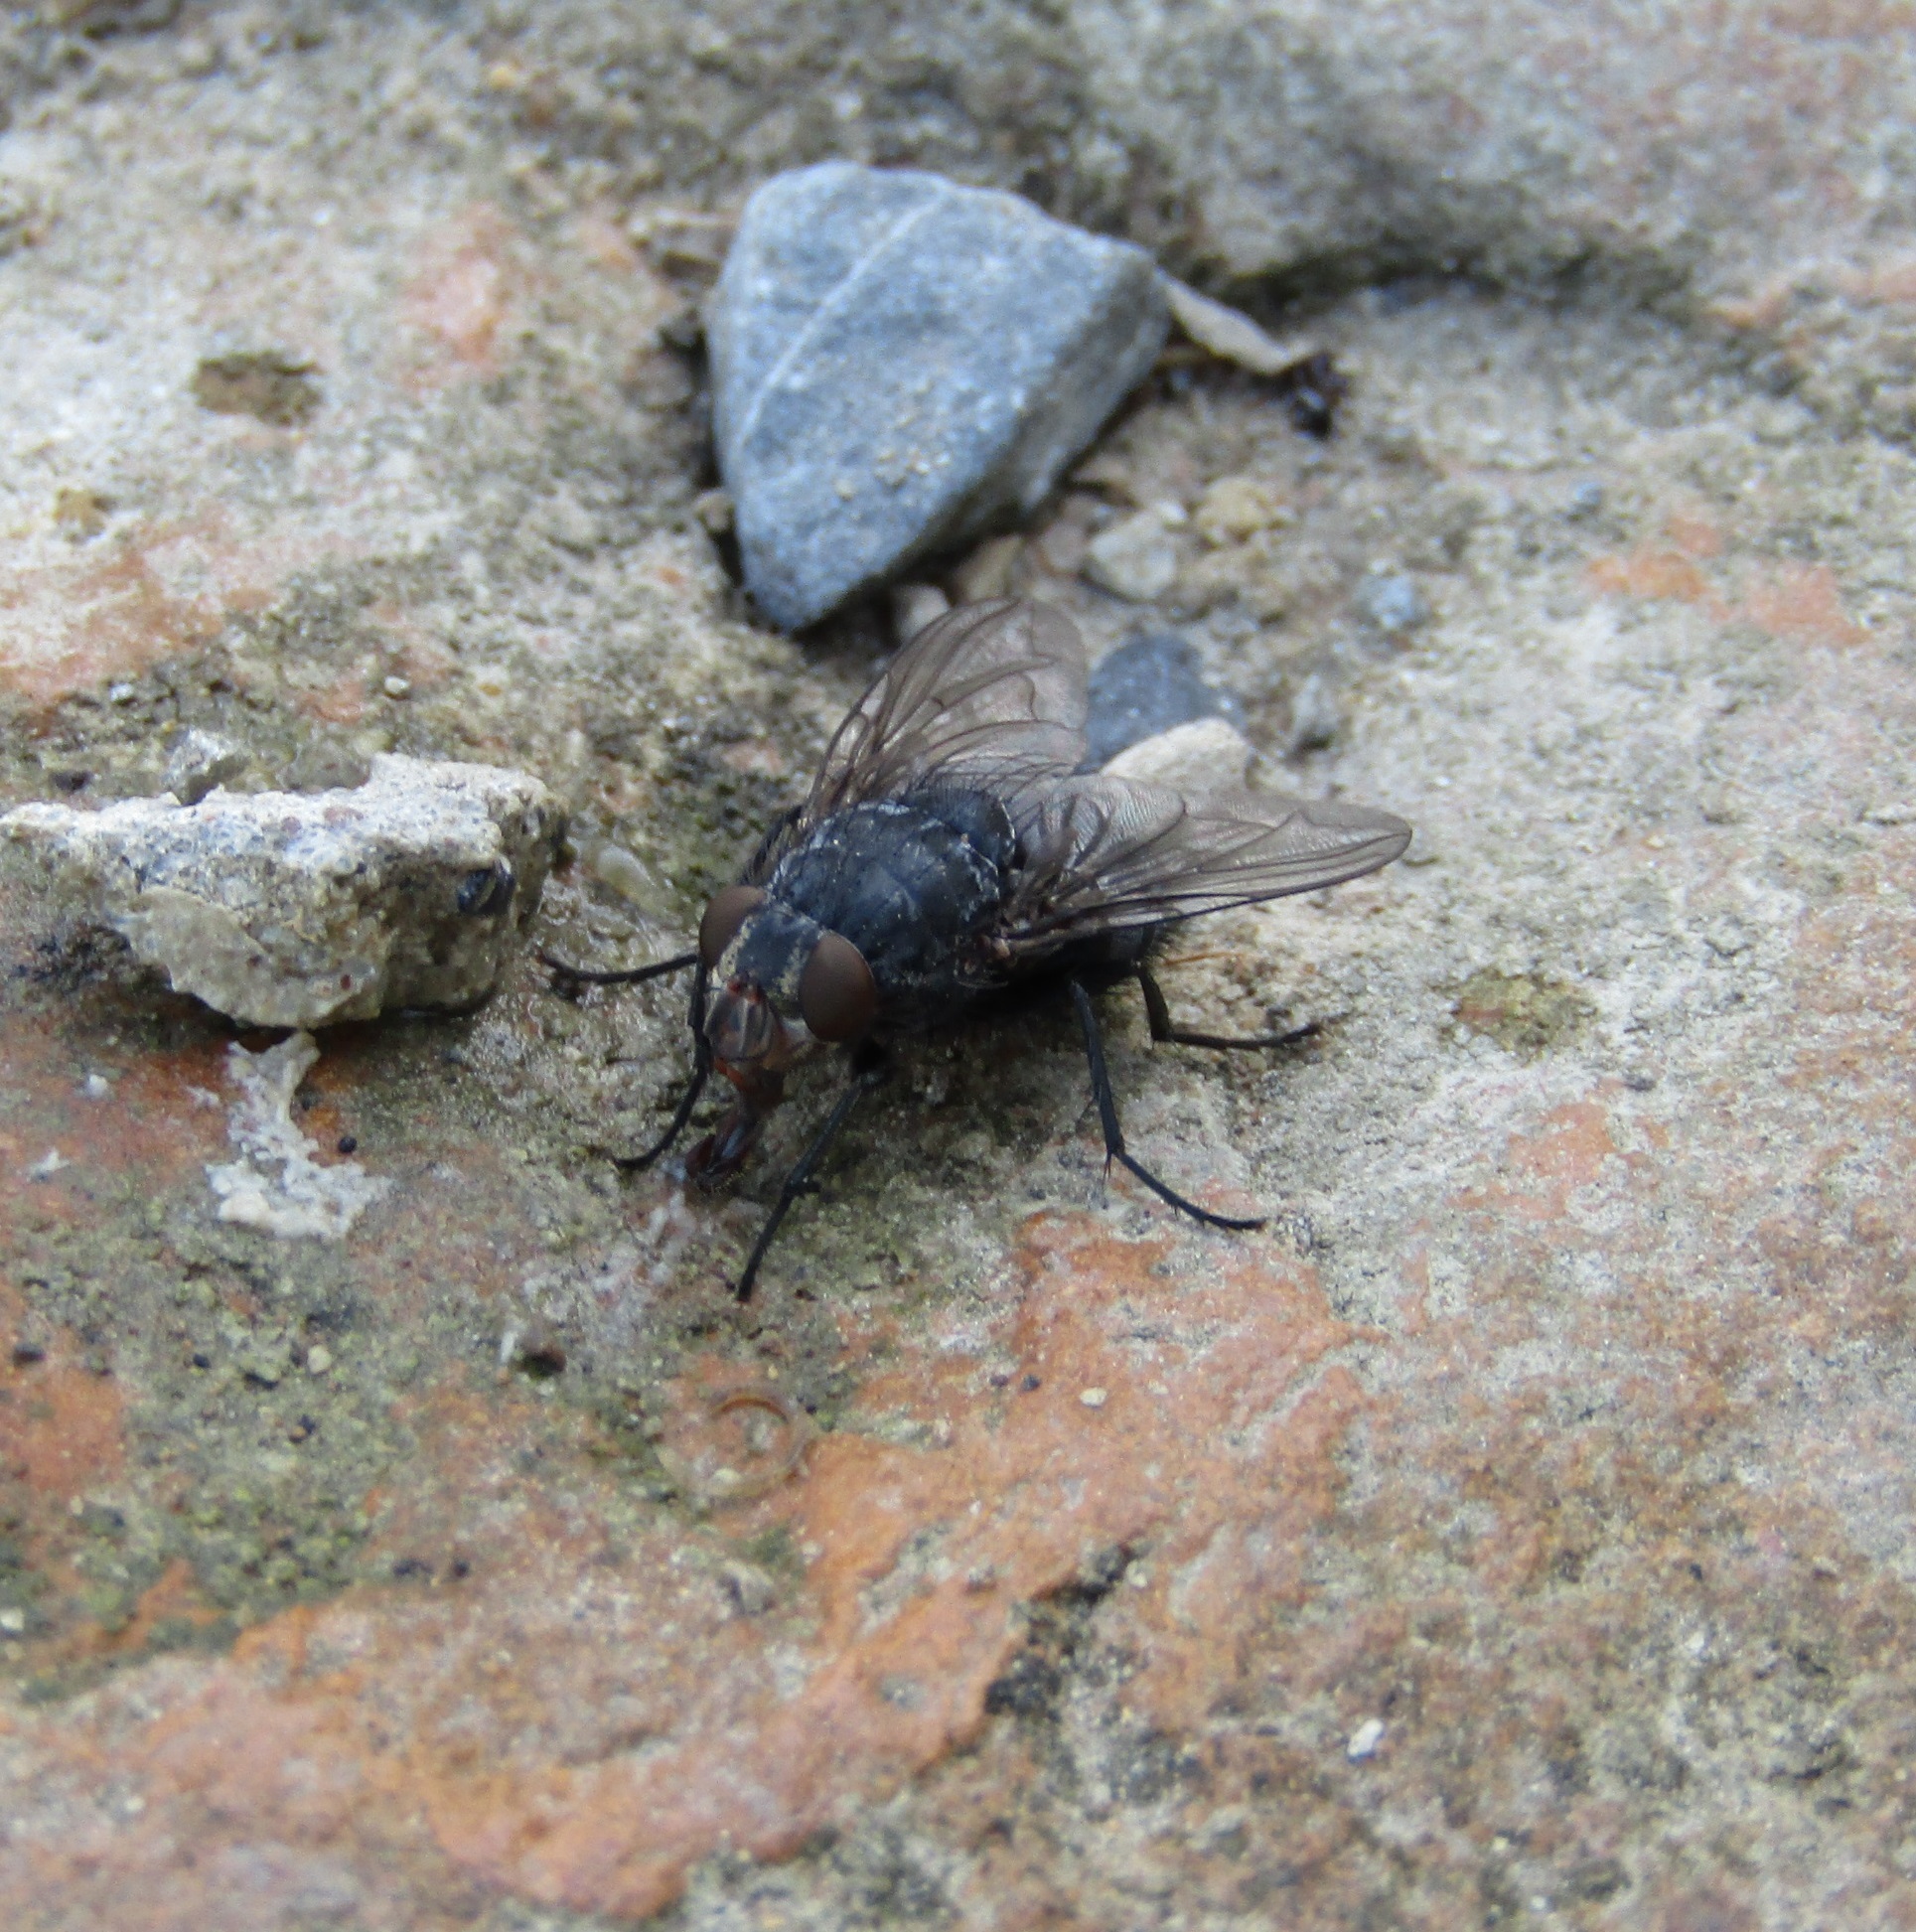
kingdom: Animalia
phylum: Arthropoda
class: Insecta
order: Diptera
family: Calliphoridae
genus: Calliphora
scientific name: Calliphora vicina
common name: Common blow flie
